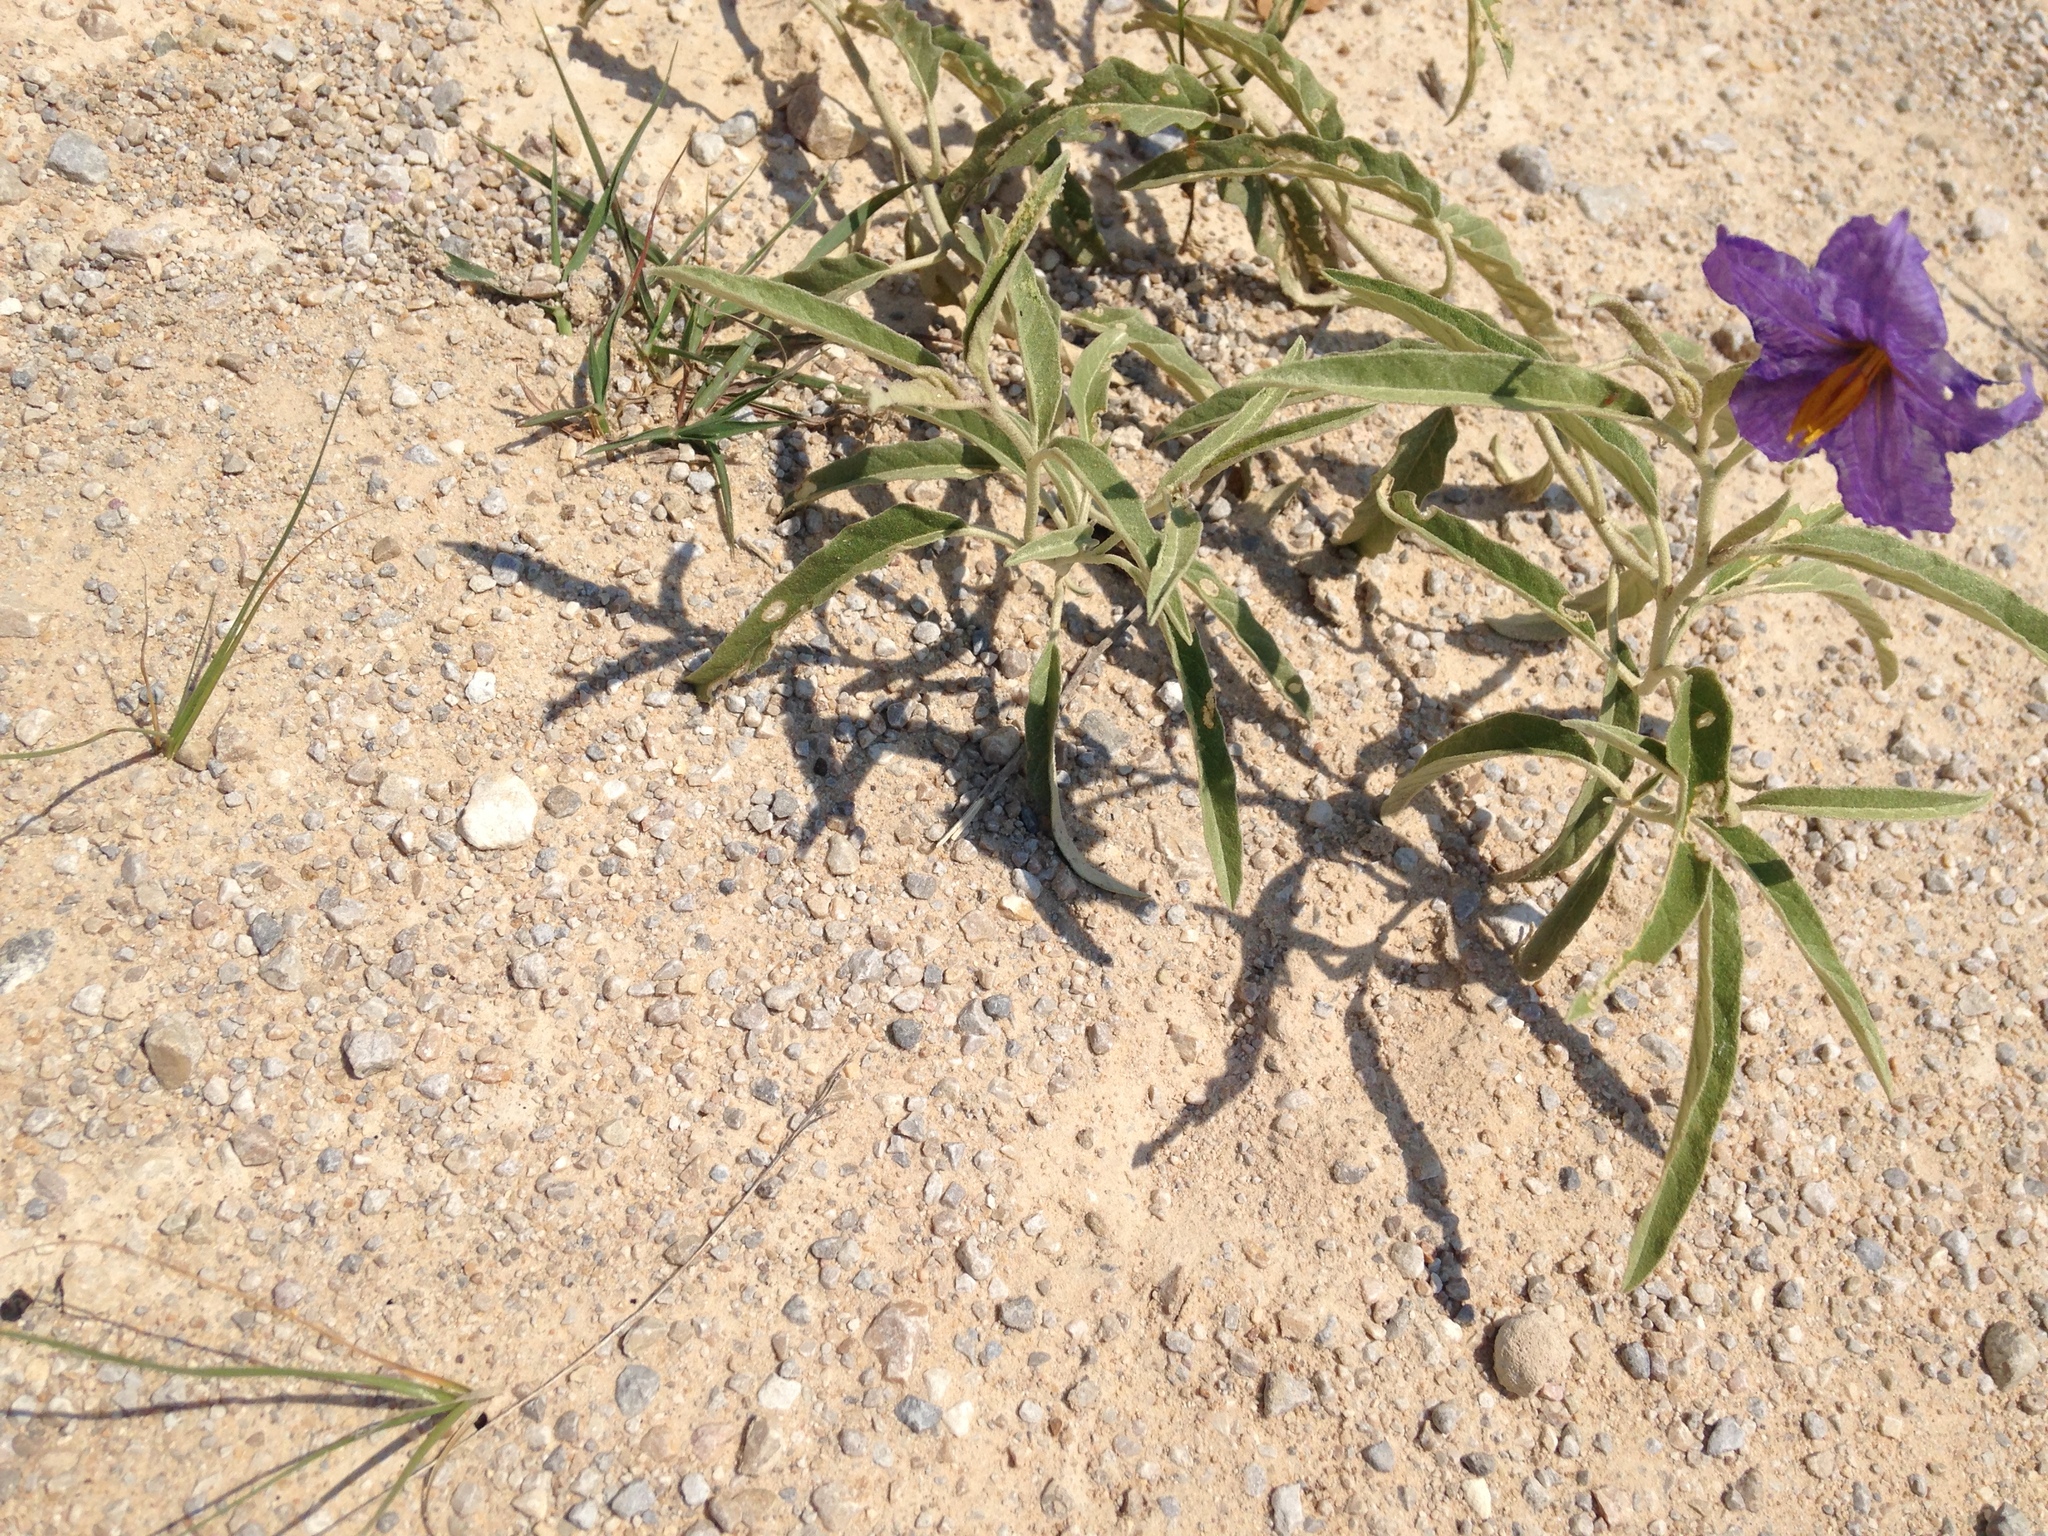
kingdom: Plantae
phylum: Tracheophyta
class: Magnoliopsida
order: Solanales
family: Solanaceae
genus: Solanum
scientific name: Solanum elaeagnifolium
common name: Silverleaf nightshade
